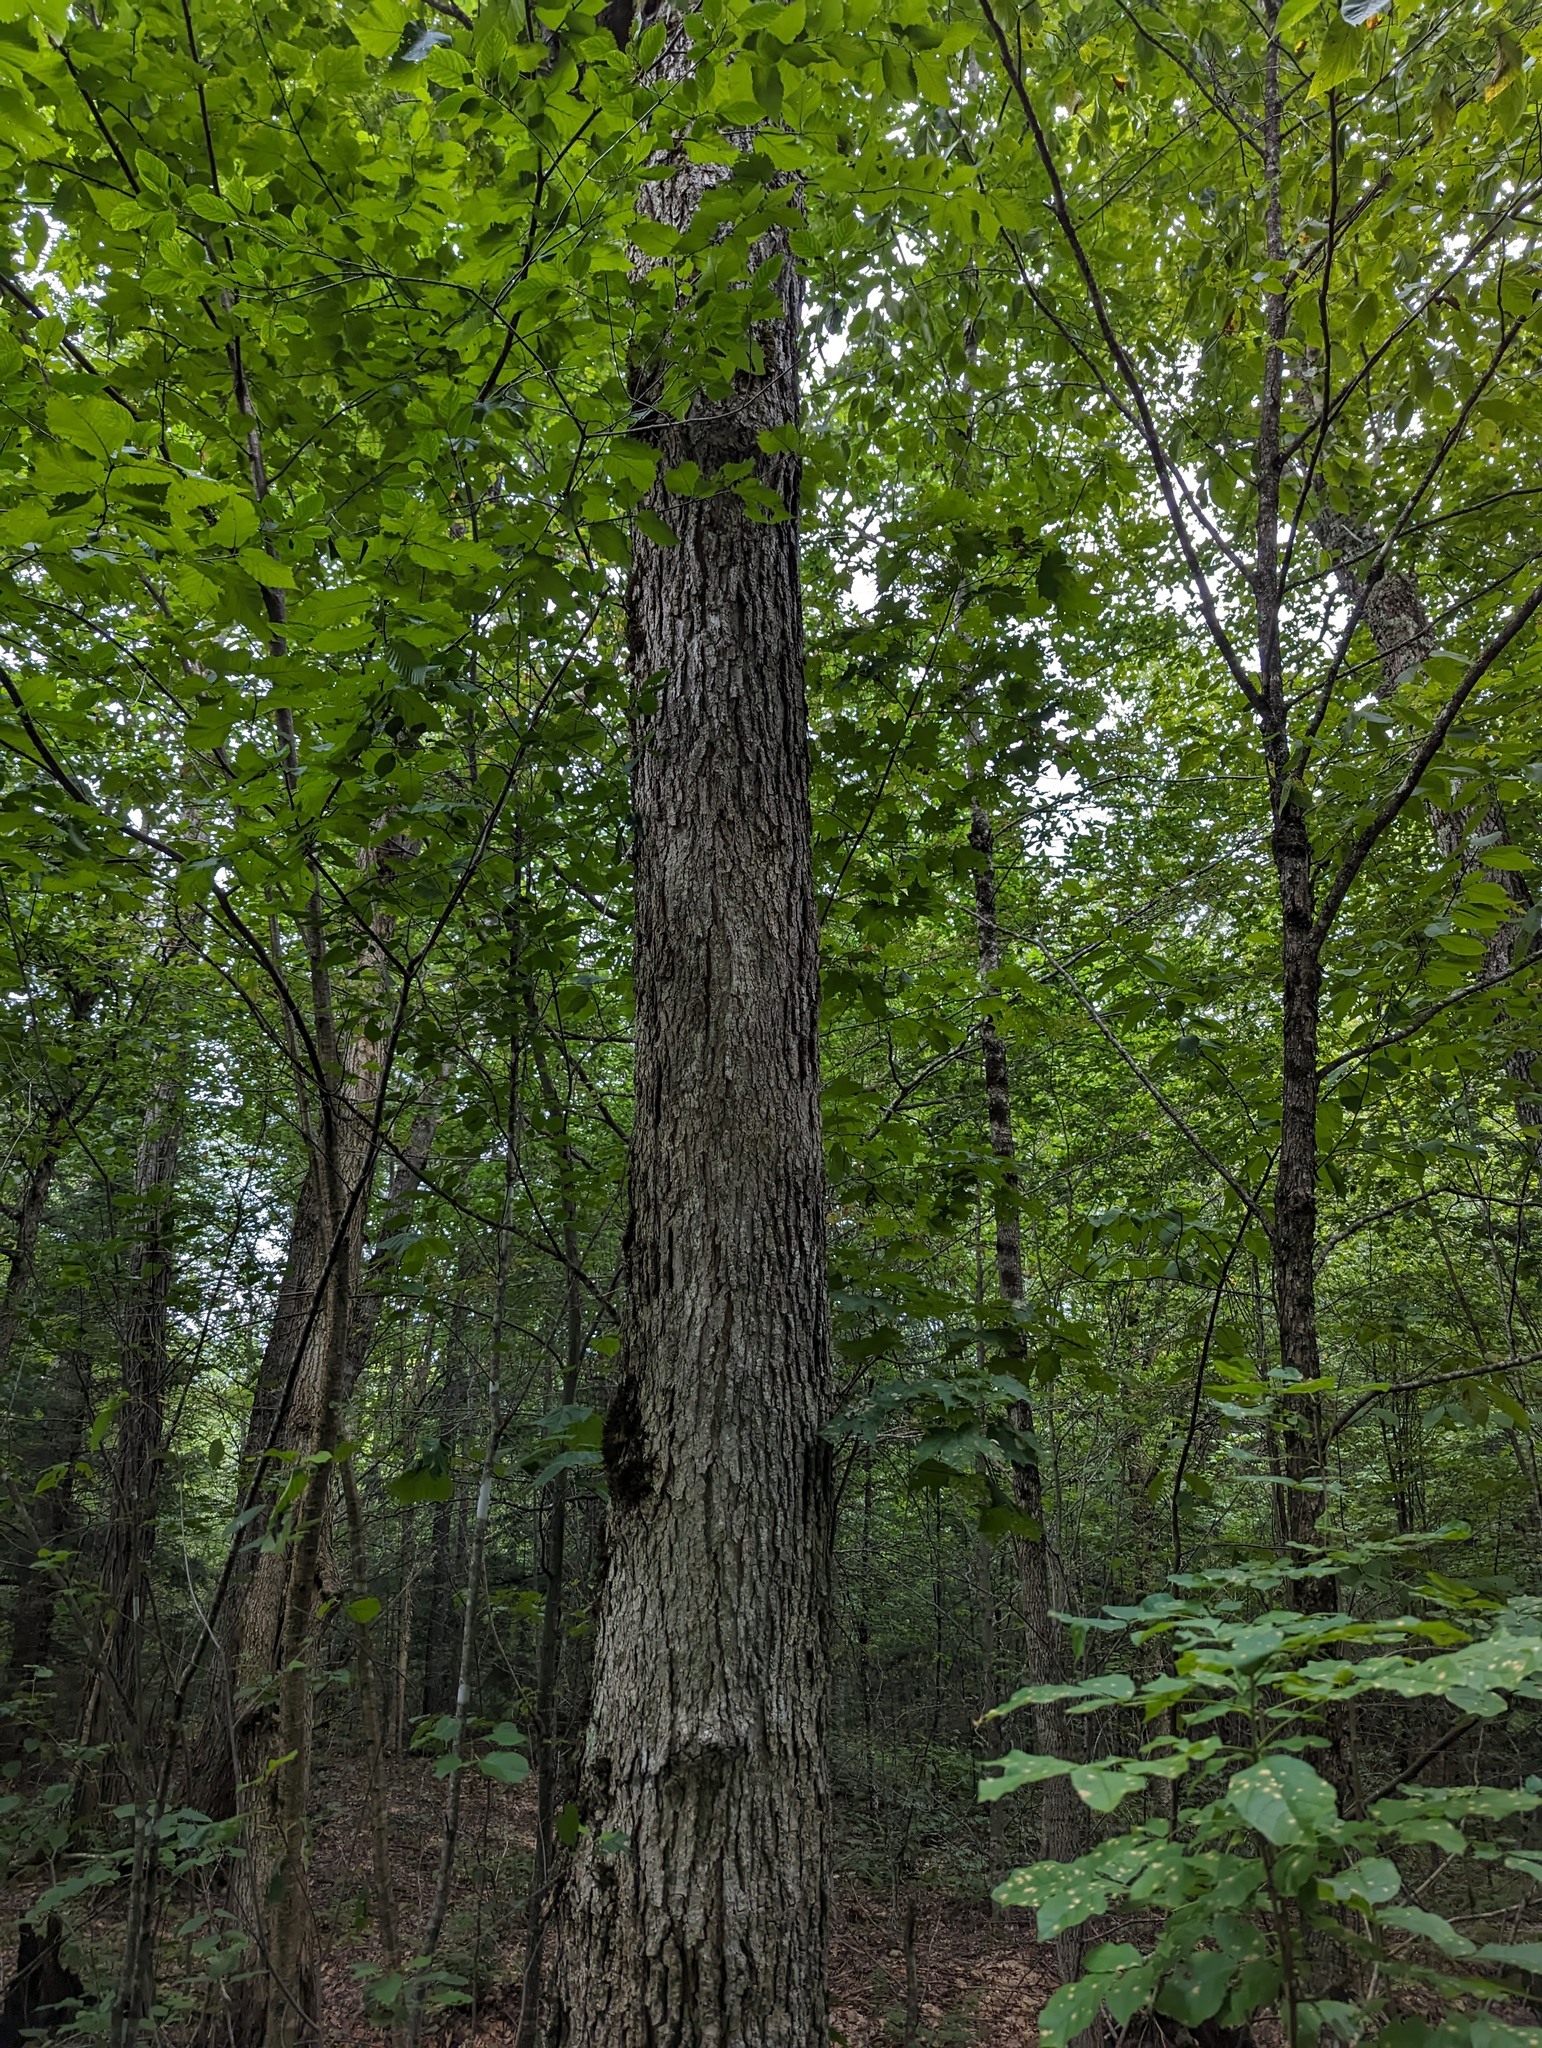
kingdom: Plantae
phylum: Tracheophyta
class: Magnoliopsida
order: Sapindales
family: Sapindaceae
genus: Acer
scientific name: Acer saccharum
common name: Sugar maple
